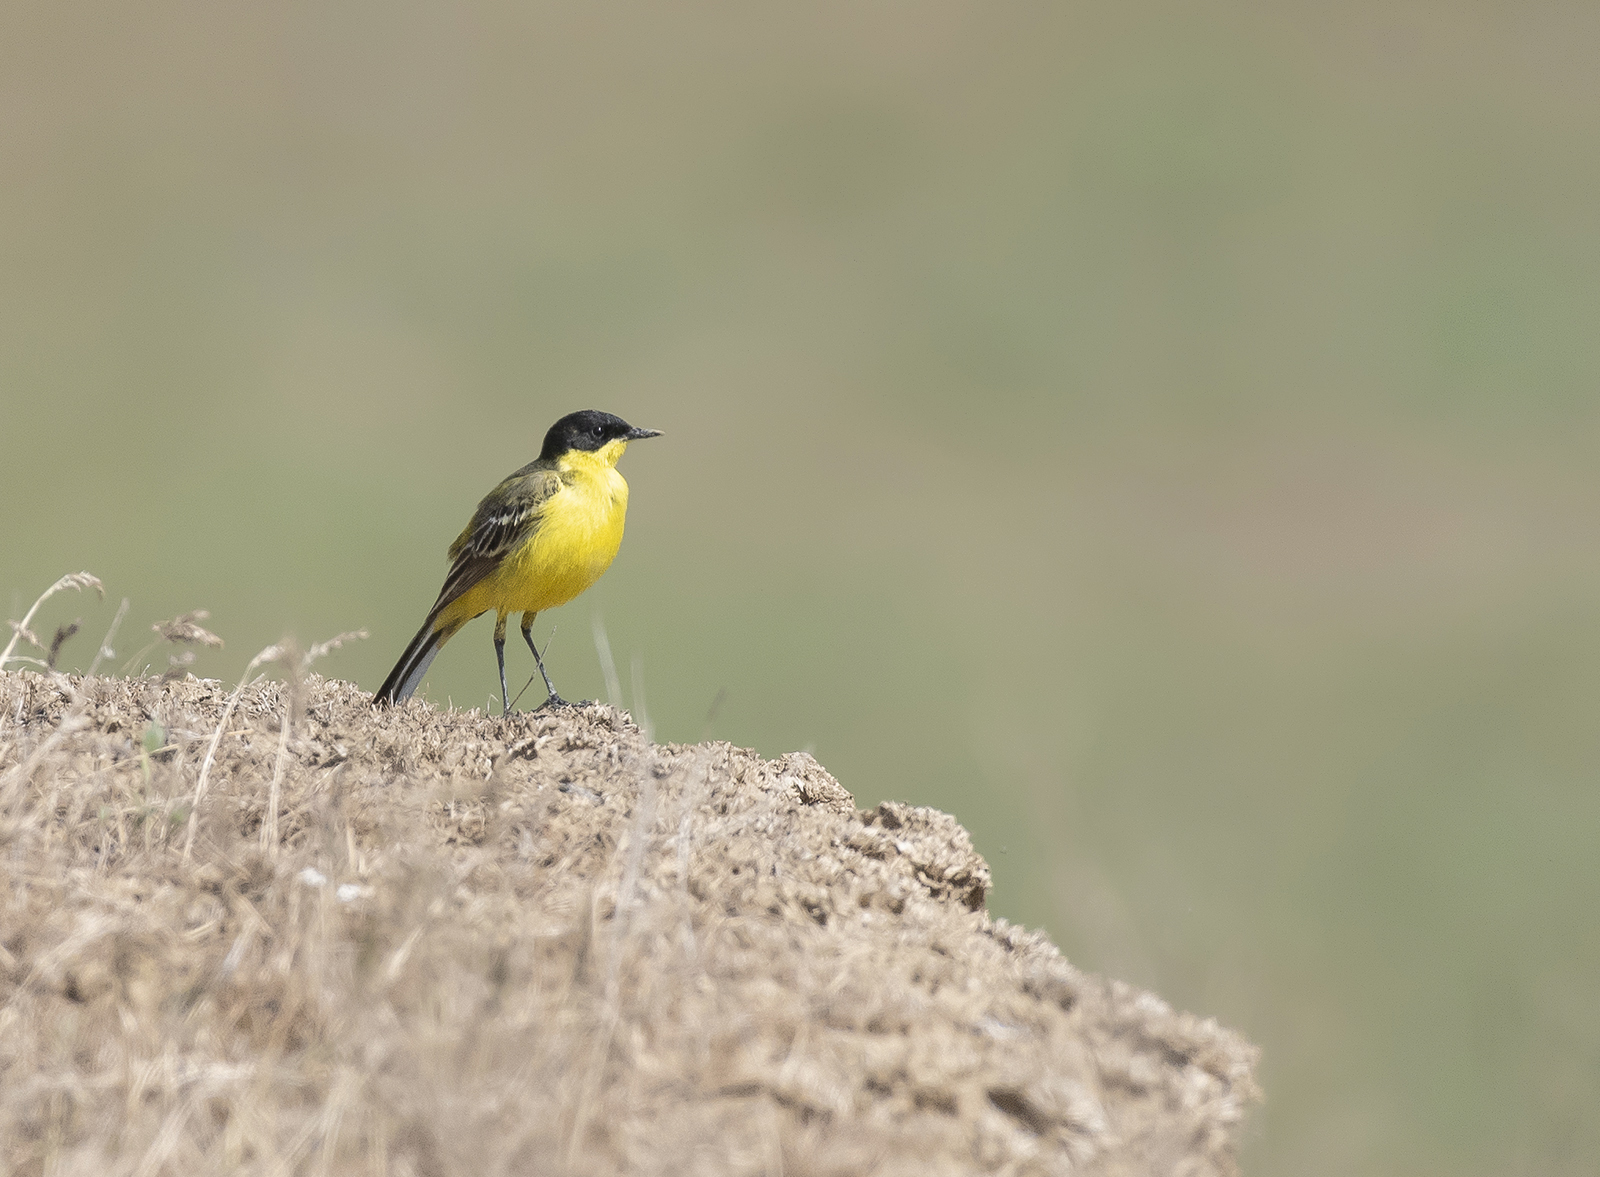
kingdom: Animalia
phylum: Chordata
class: Aves
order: Passeriformes
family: Motacillidae
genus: Motacilla
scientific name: Motacilla flava
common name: Western yellow wagtail
